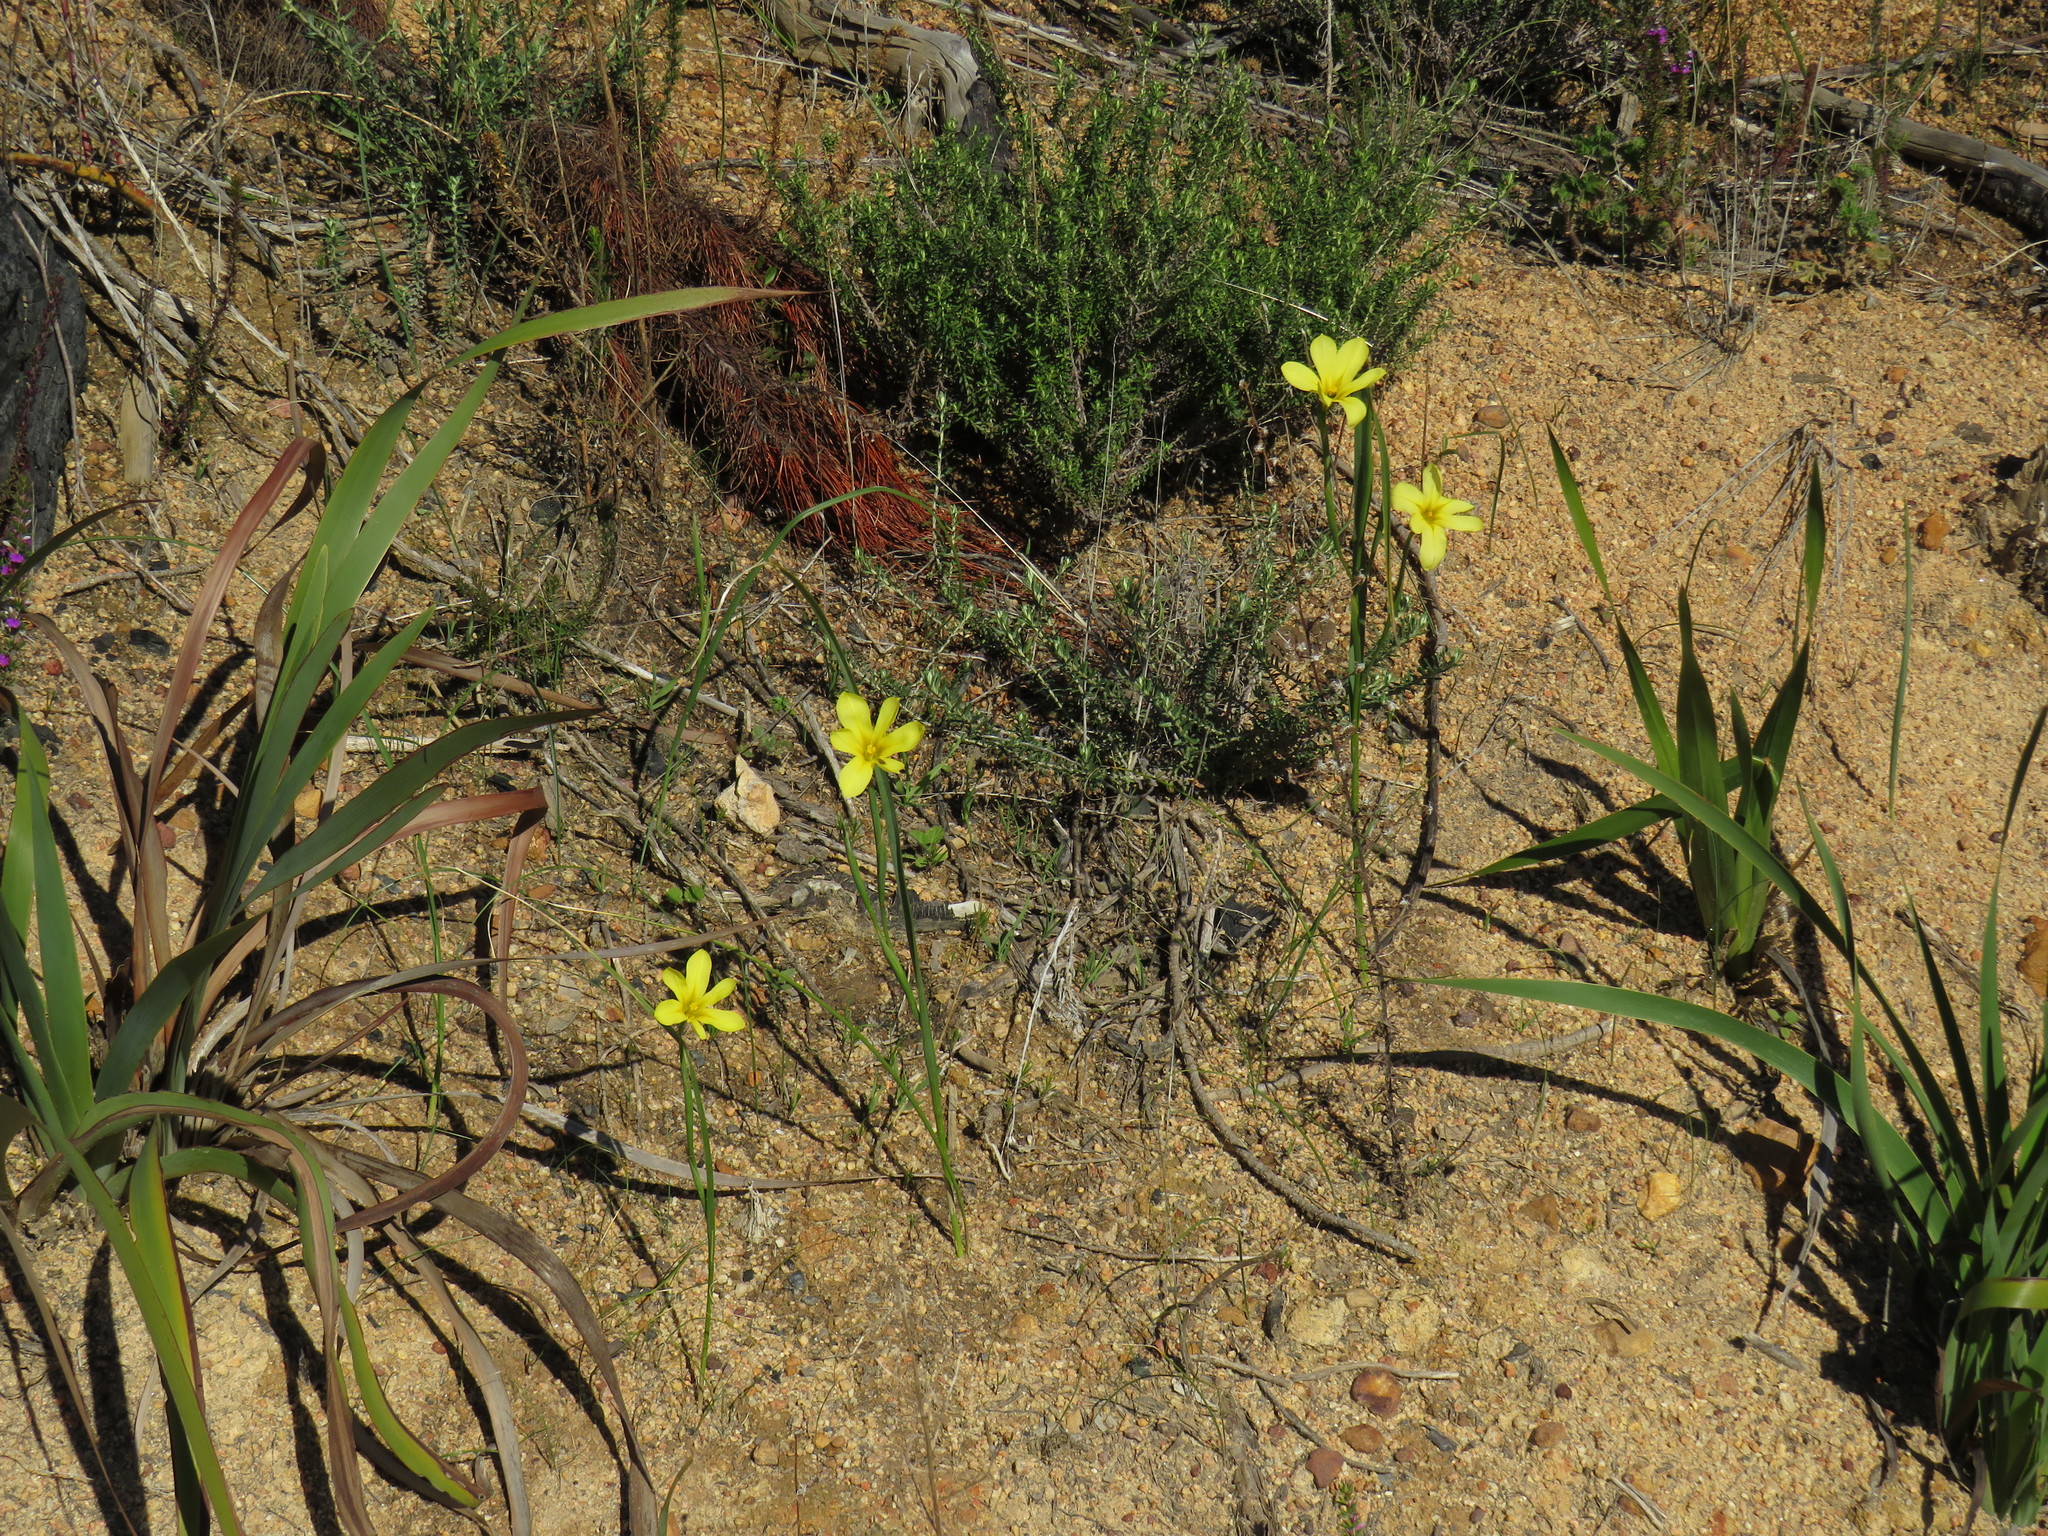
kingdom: Plantae
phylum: Tracheophyta
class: Liliopsida
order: Asparagales
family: Iridaceae
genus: Moraea
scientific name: Moraea collina
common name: Cape-tulip
